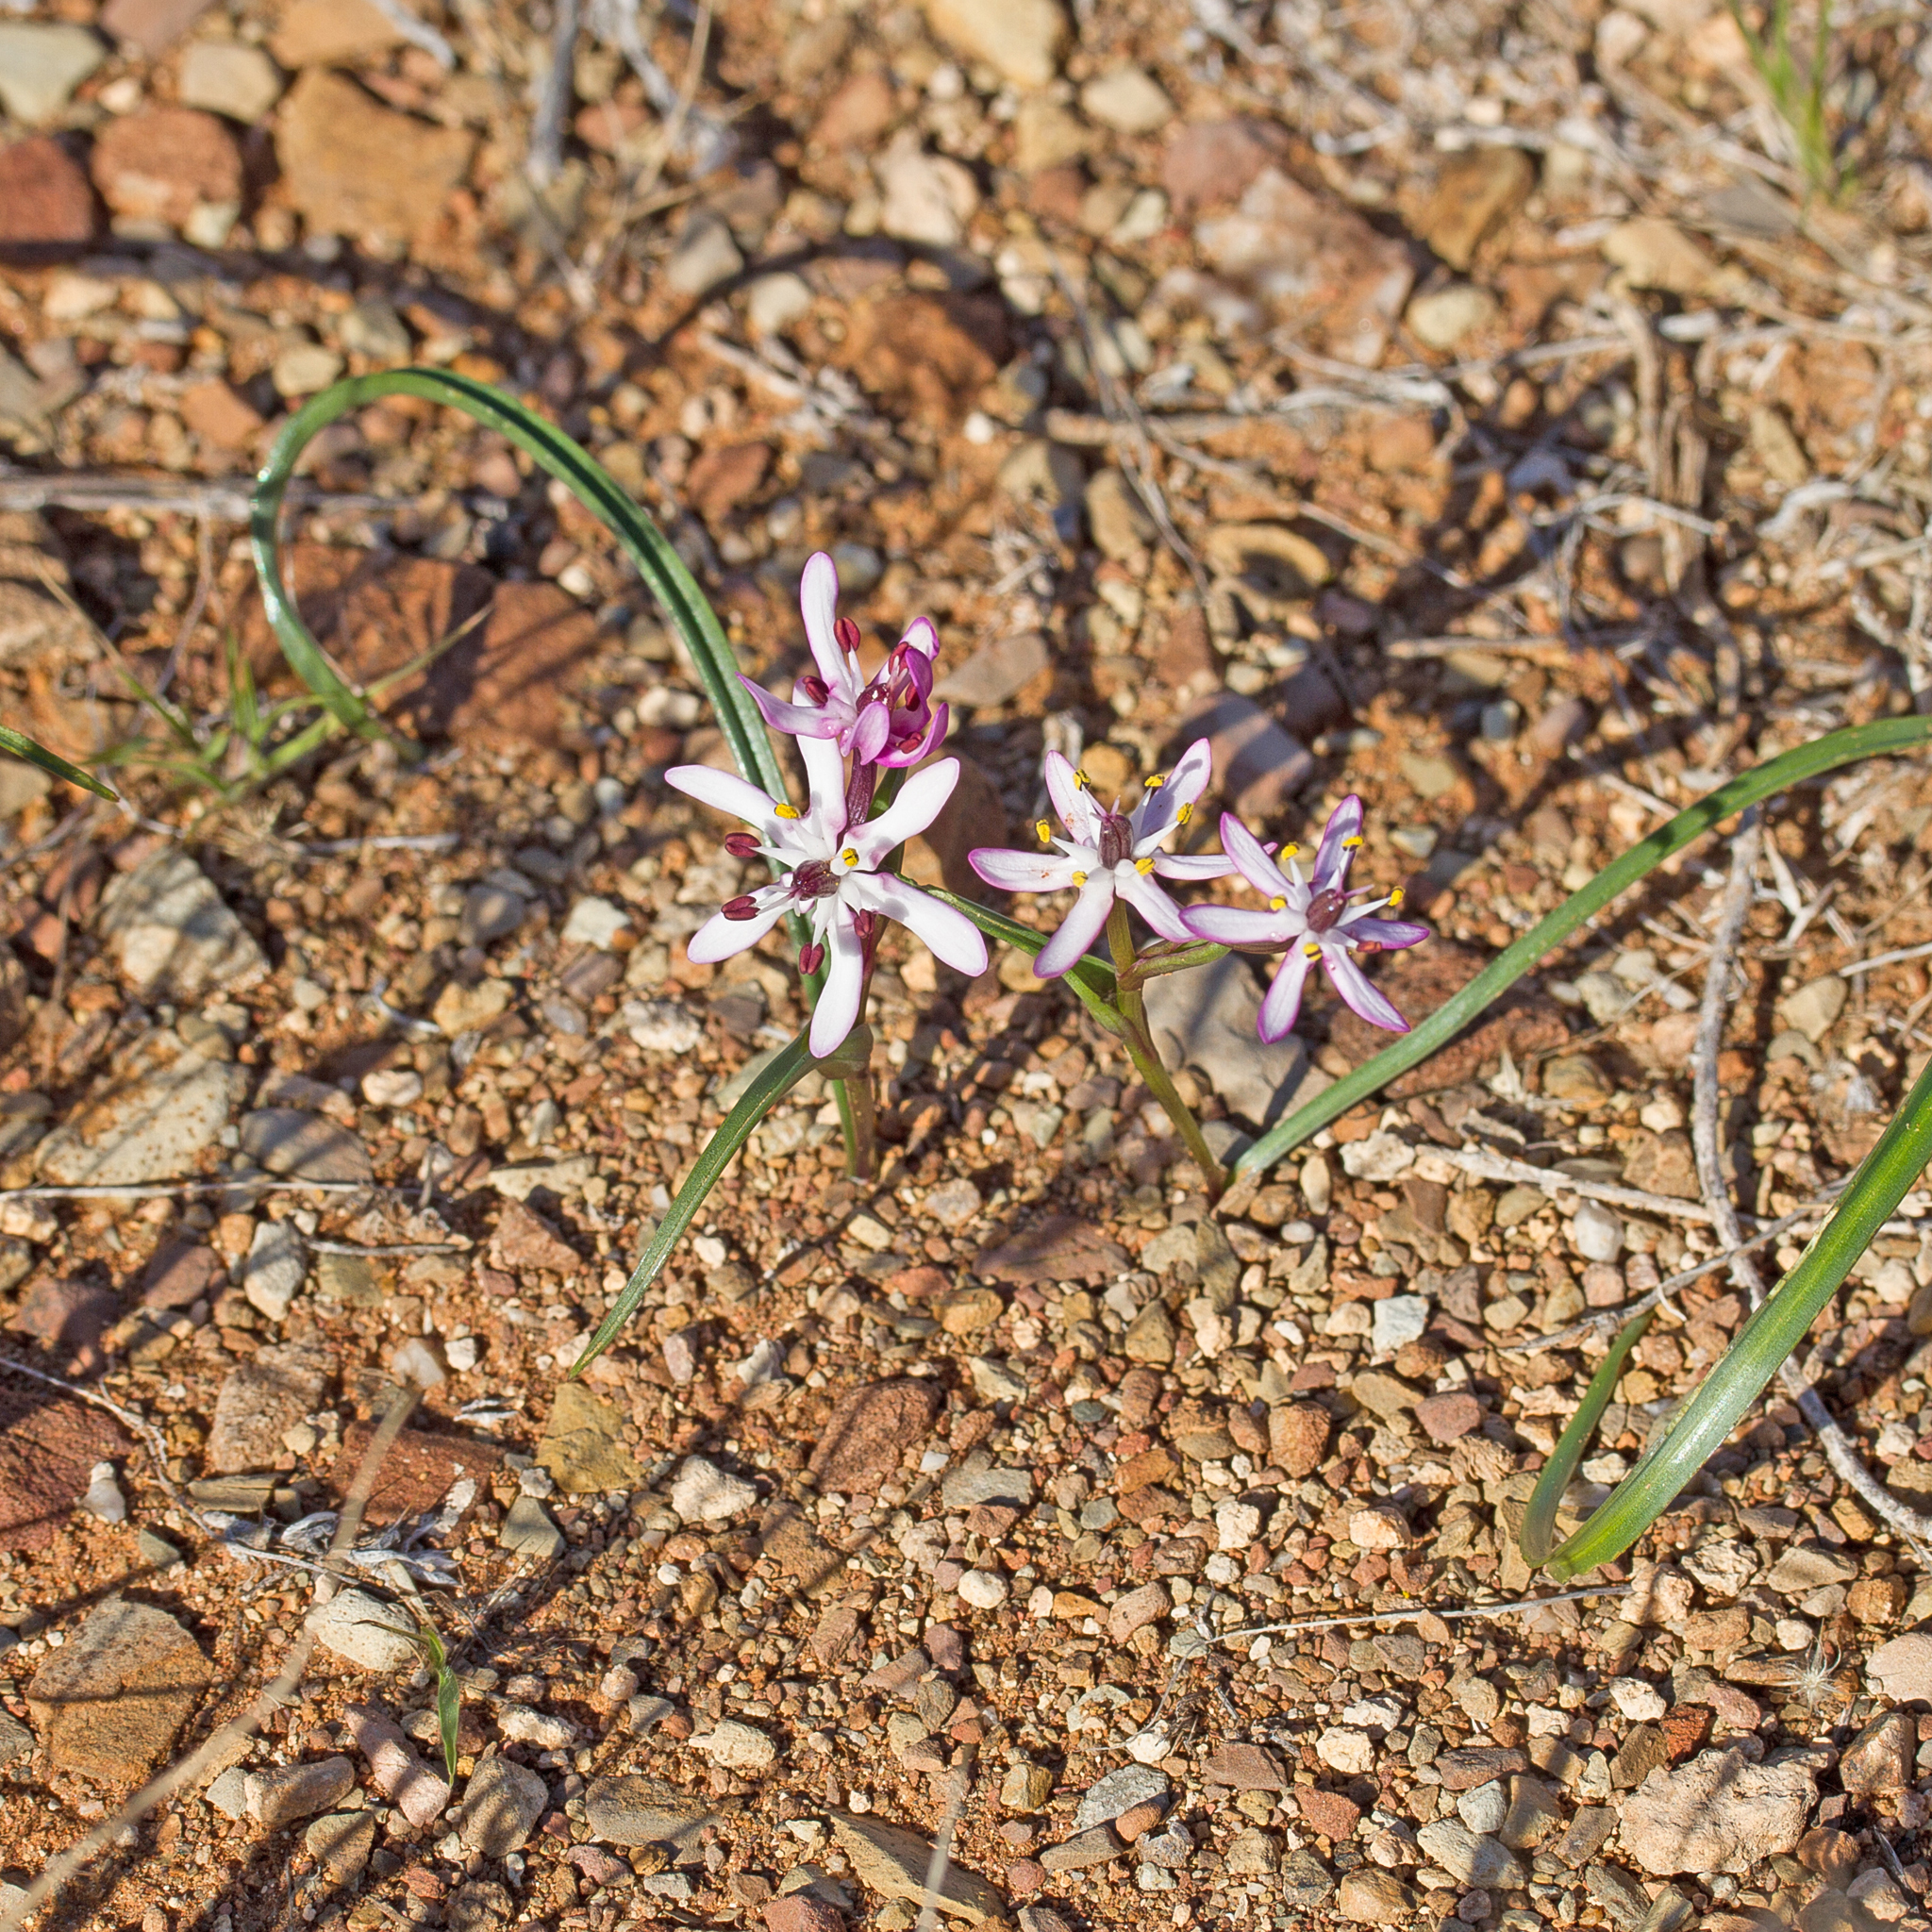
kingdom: Plantae
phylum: Tracheophyta
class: Liliopsida
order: Liliales
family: Colchicaceae
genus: Wurmbea
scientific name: Wurmbea stellata
